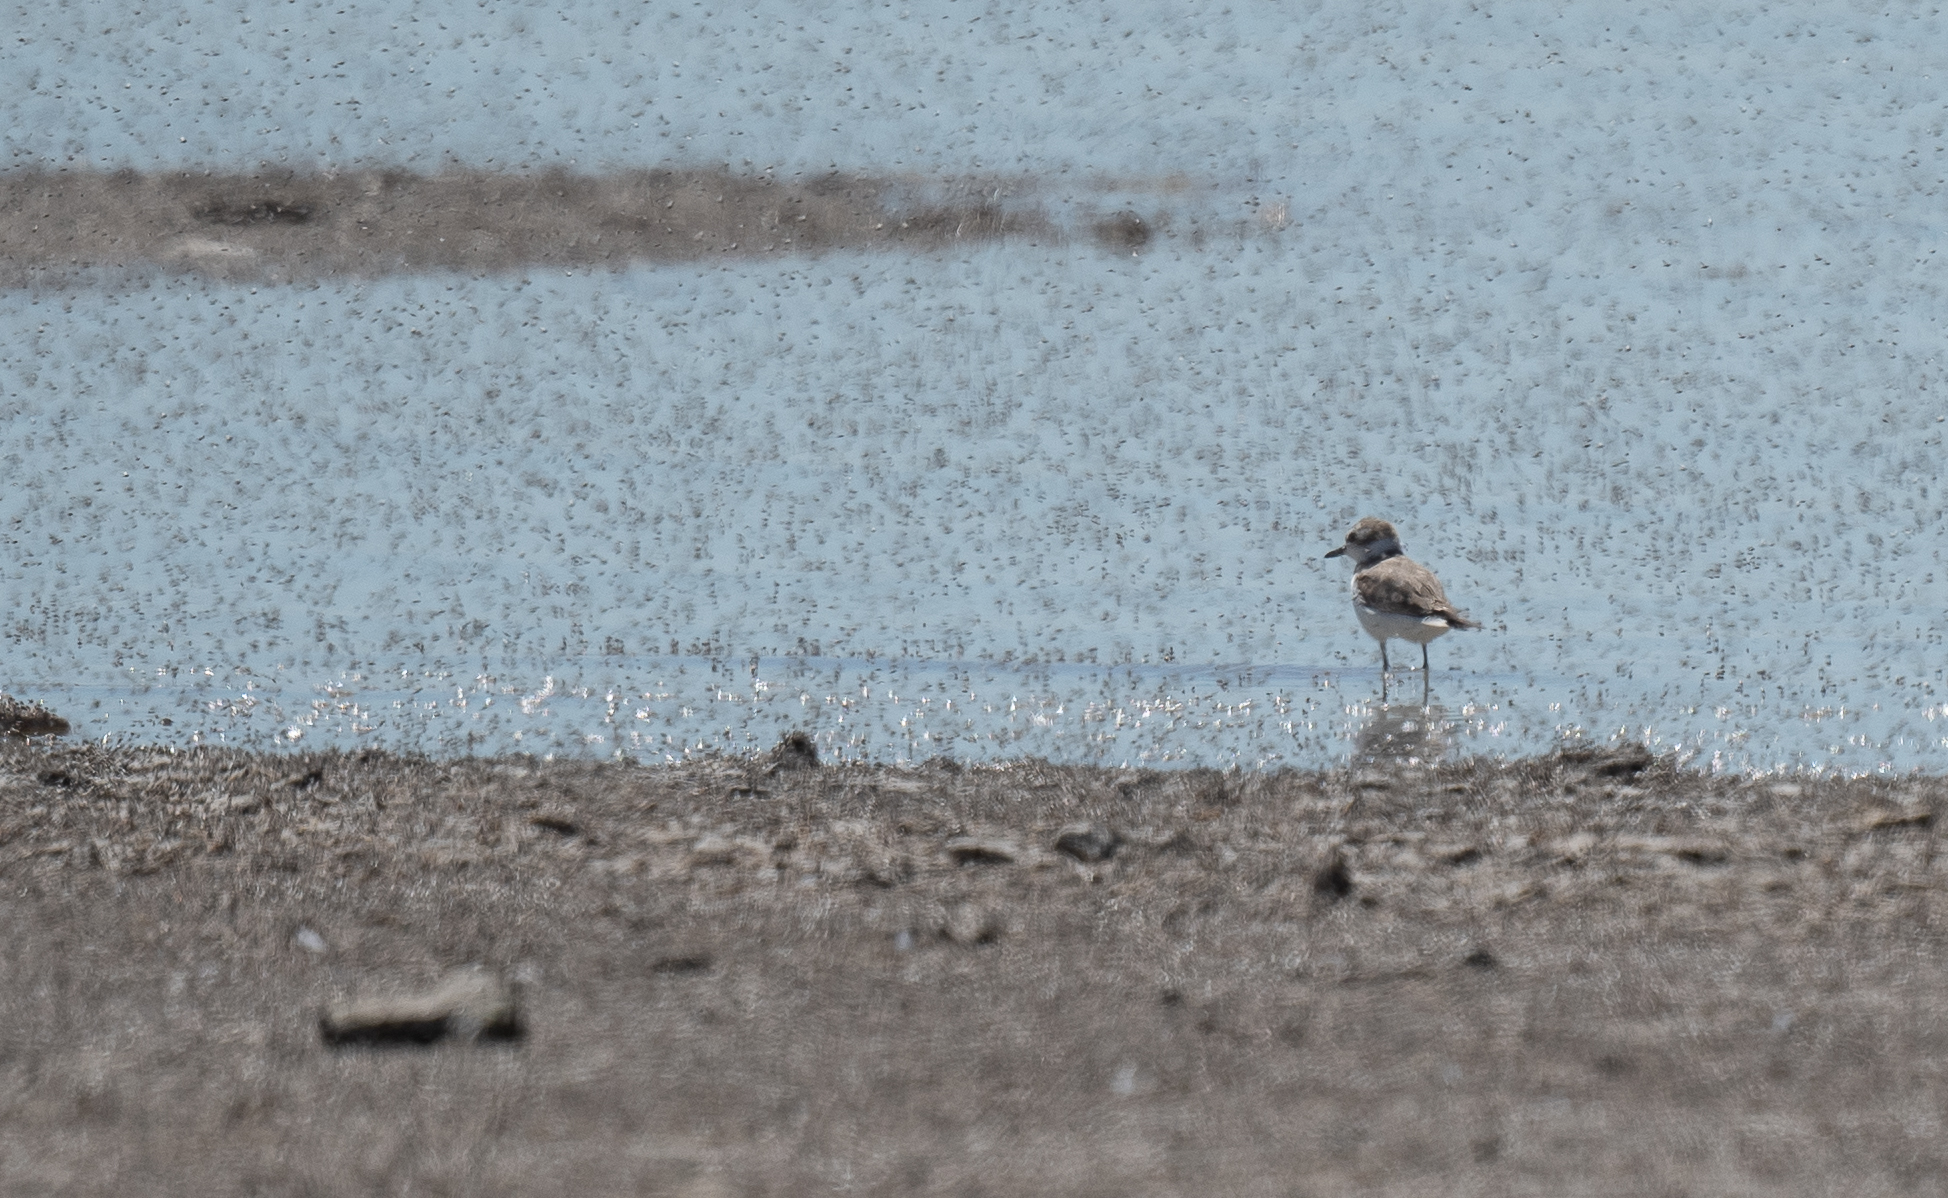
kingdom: Animalia
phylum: Chordata
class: Aves
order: Charadriiformes
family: Charadriidae
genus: Anarhynchus
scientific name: Anarhynchus
